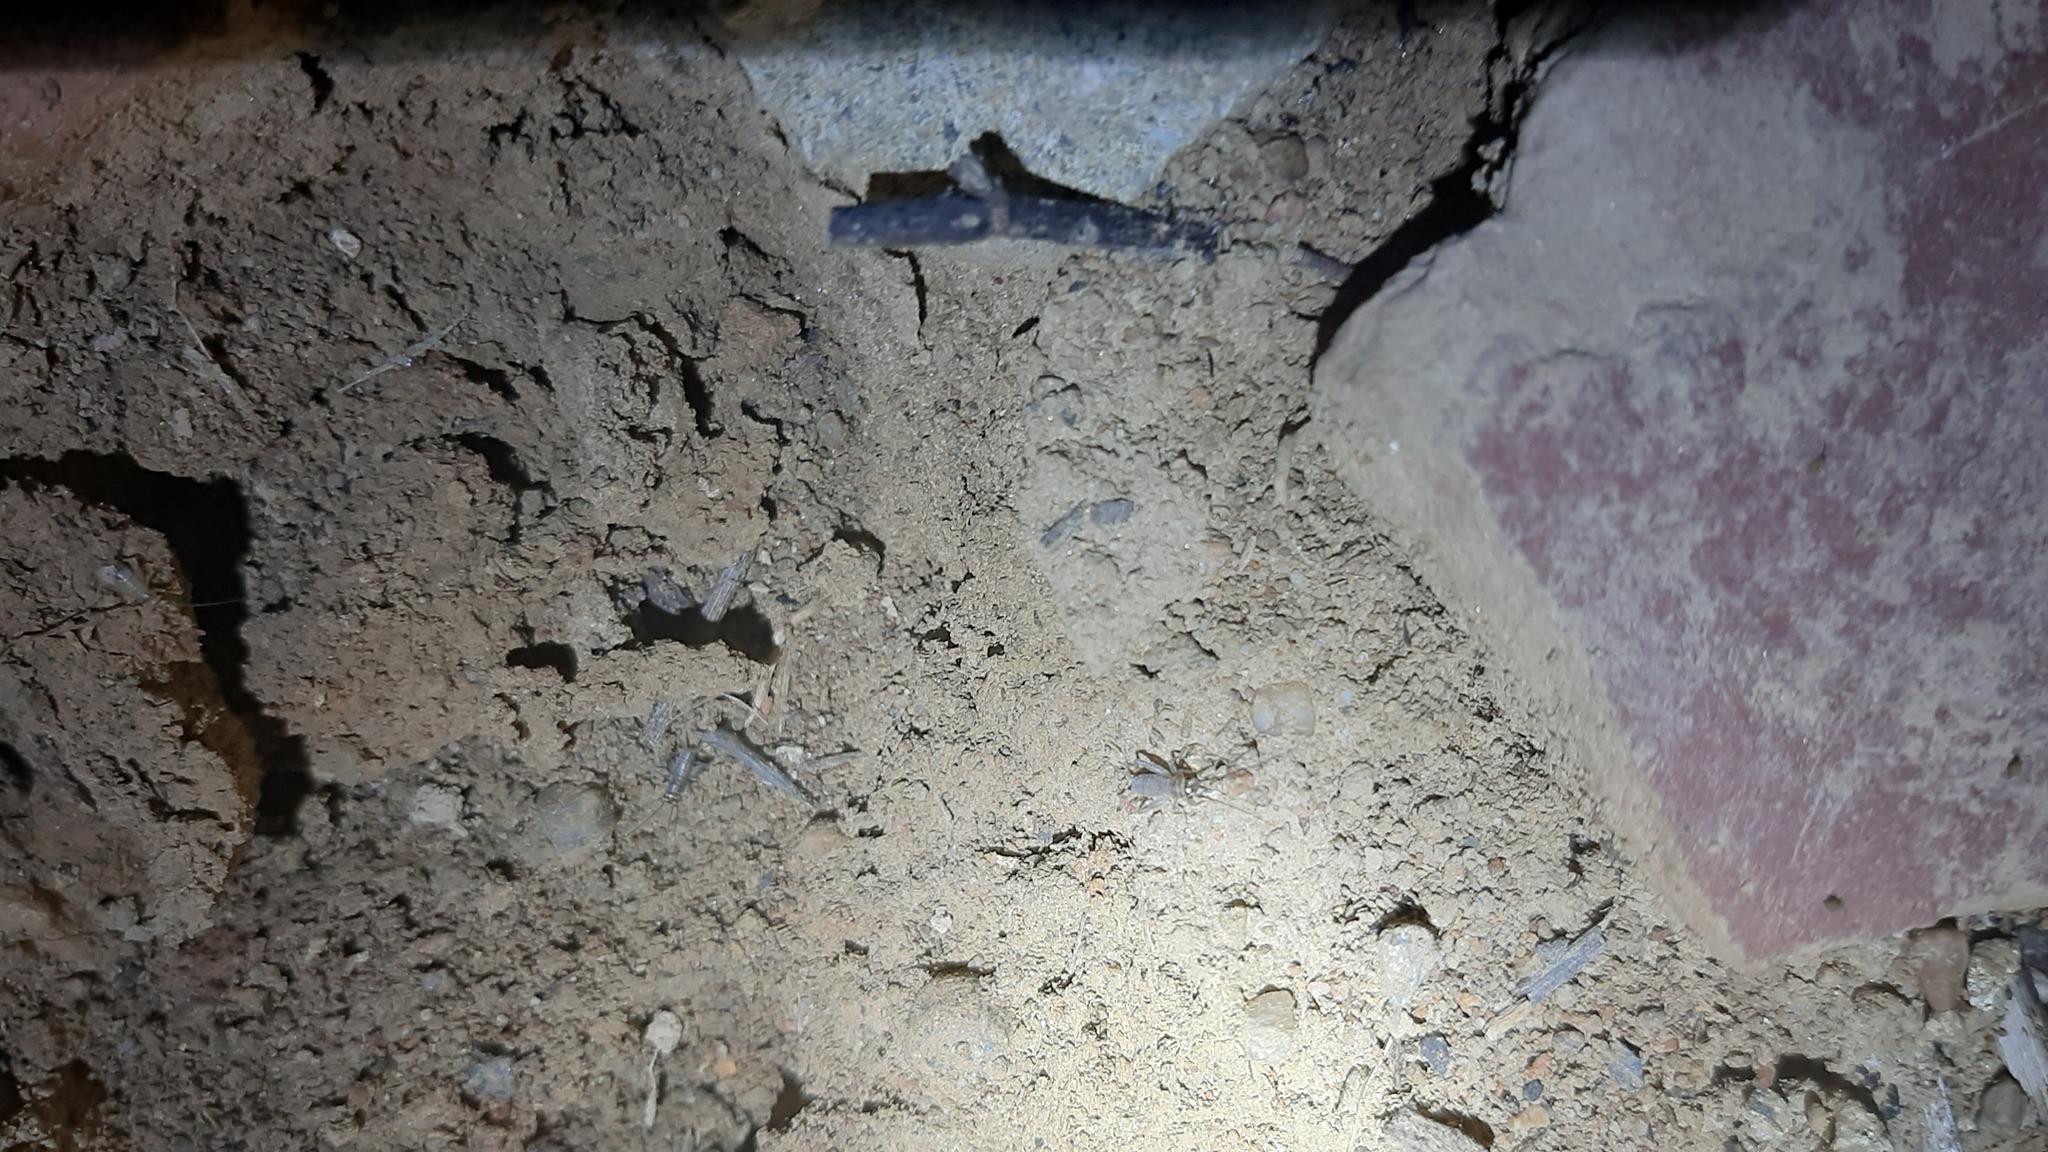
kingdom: Animalia
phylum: Arthropoda
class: Insecta
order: Orthoptera
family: Gryllidae
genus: Eumodicogryllus
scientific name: Eumodicogryllus bordigalensis
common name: Bordeaux cricket
